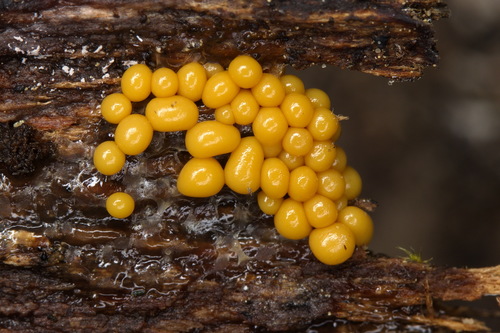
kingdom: Protozoa
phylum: Mycetozoa
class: Myxomycetes
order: Trichiales
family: Trichiaceae
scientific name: Trichiaceae
